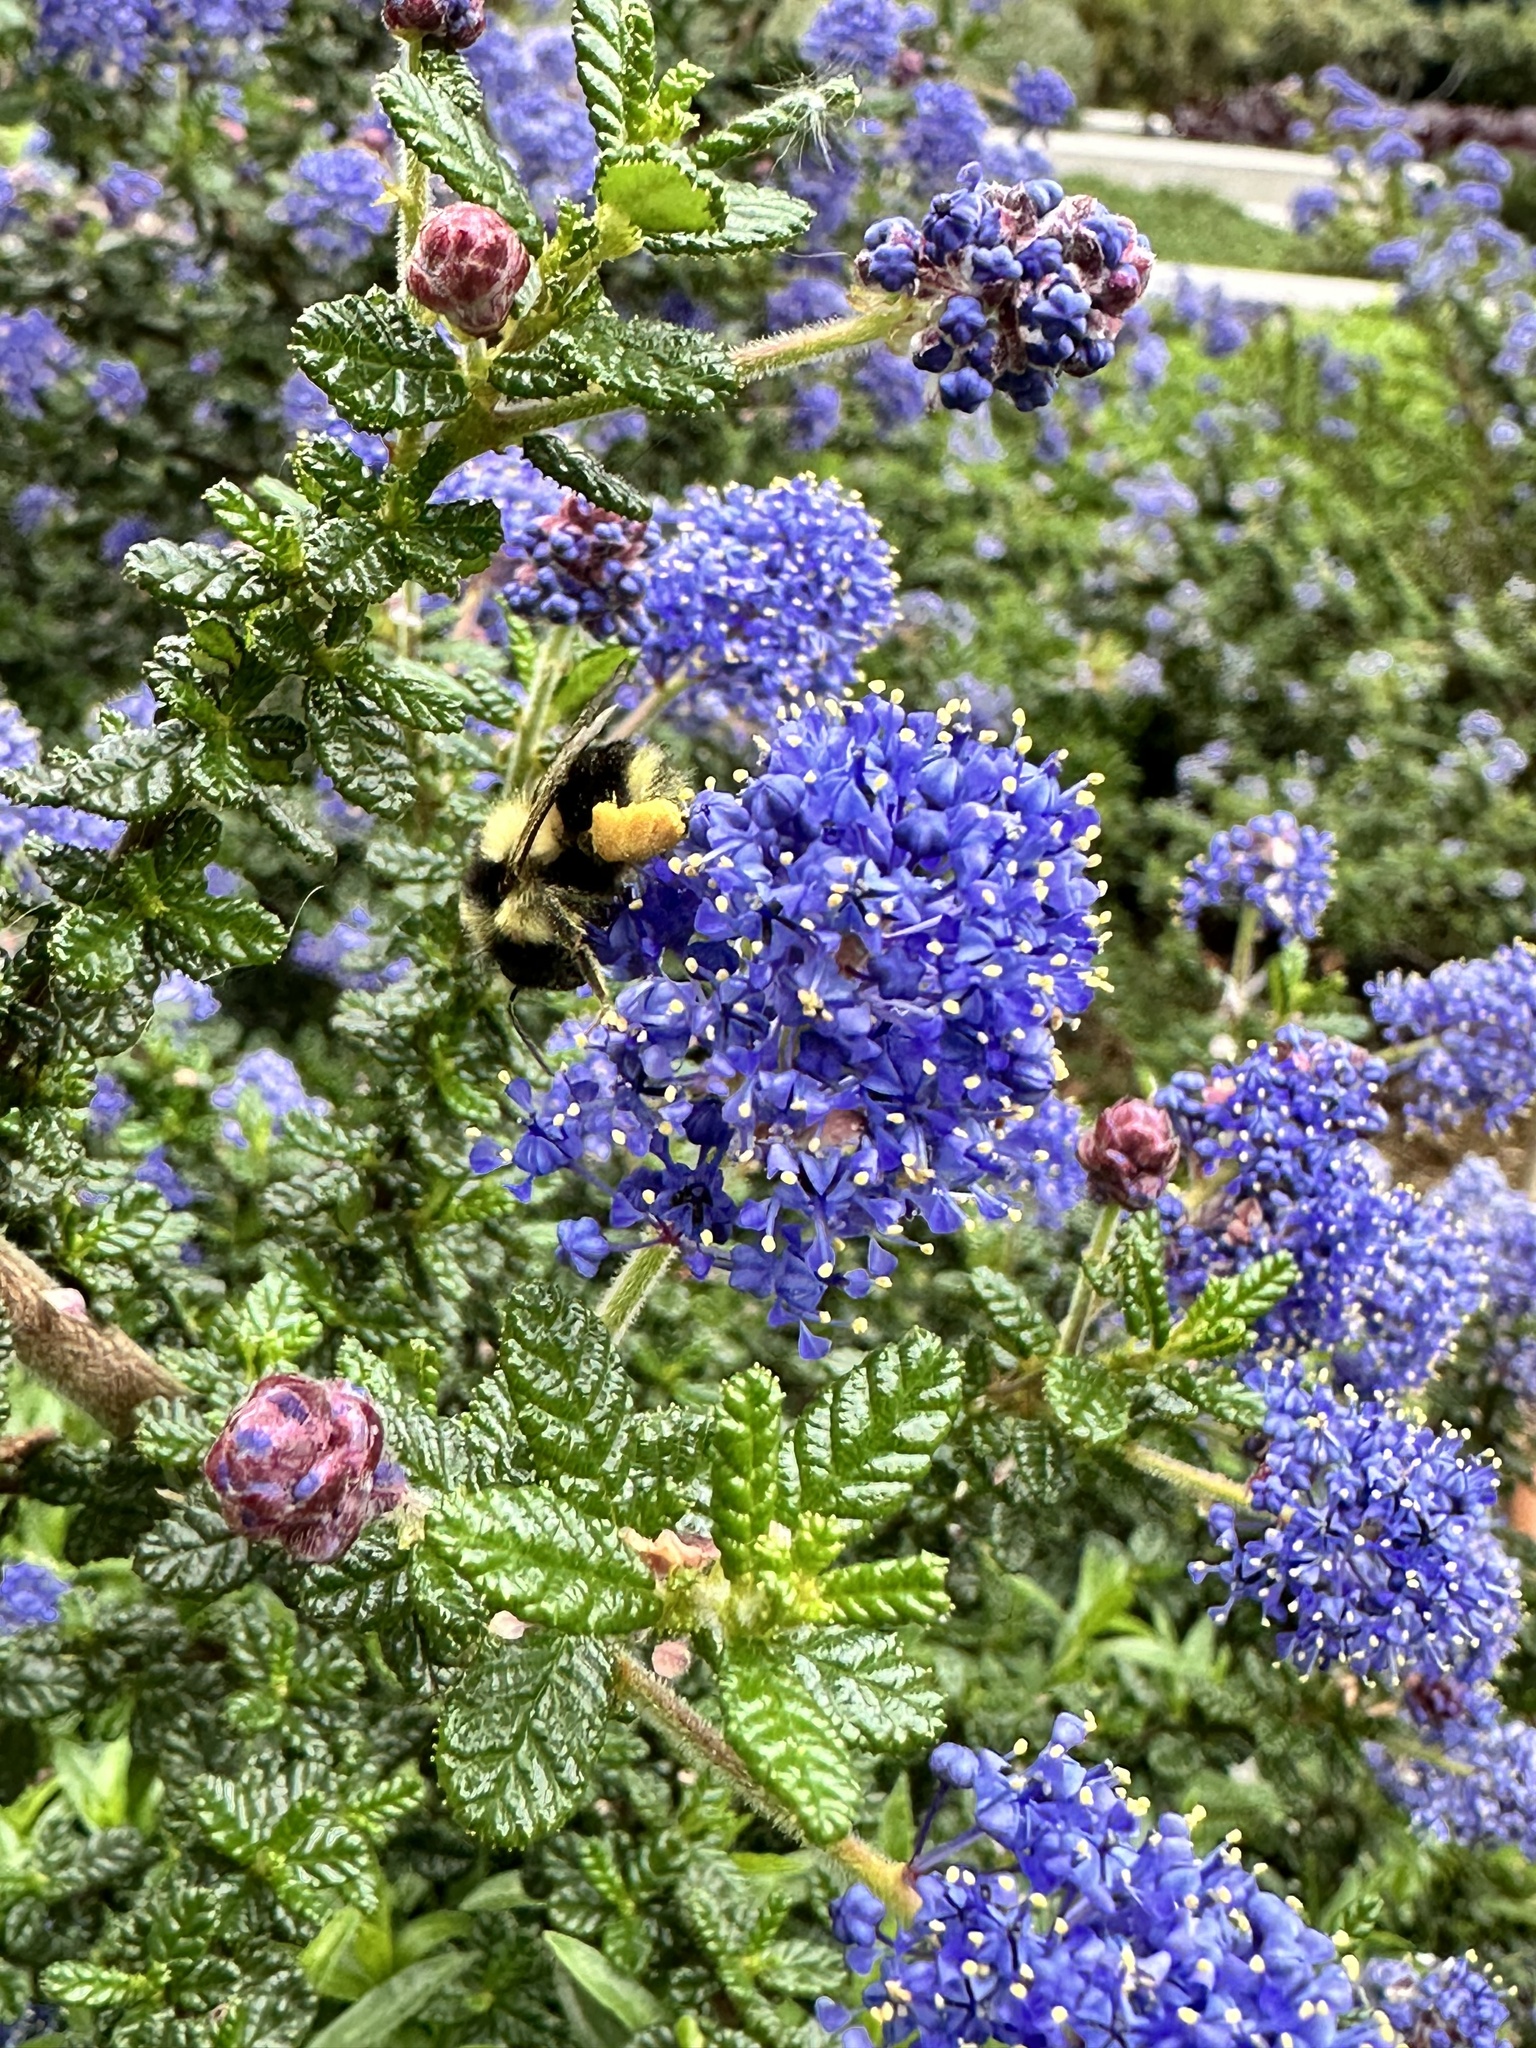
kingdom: Animalia
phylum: Arthropoda
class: Insecta
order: Hymenoptera
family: Apidae
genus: Bombus
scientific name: Bombus melanopygus
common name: Black tail bumble bee
